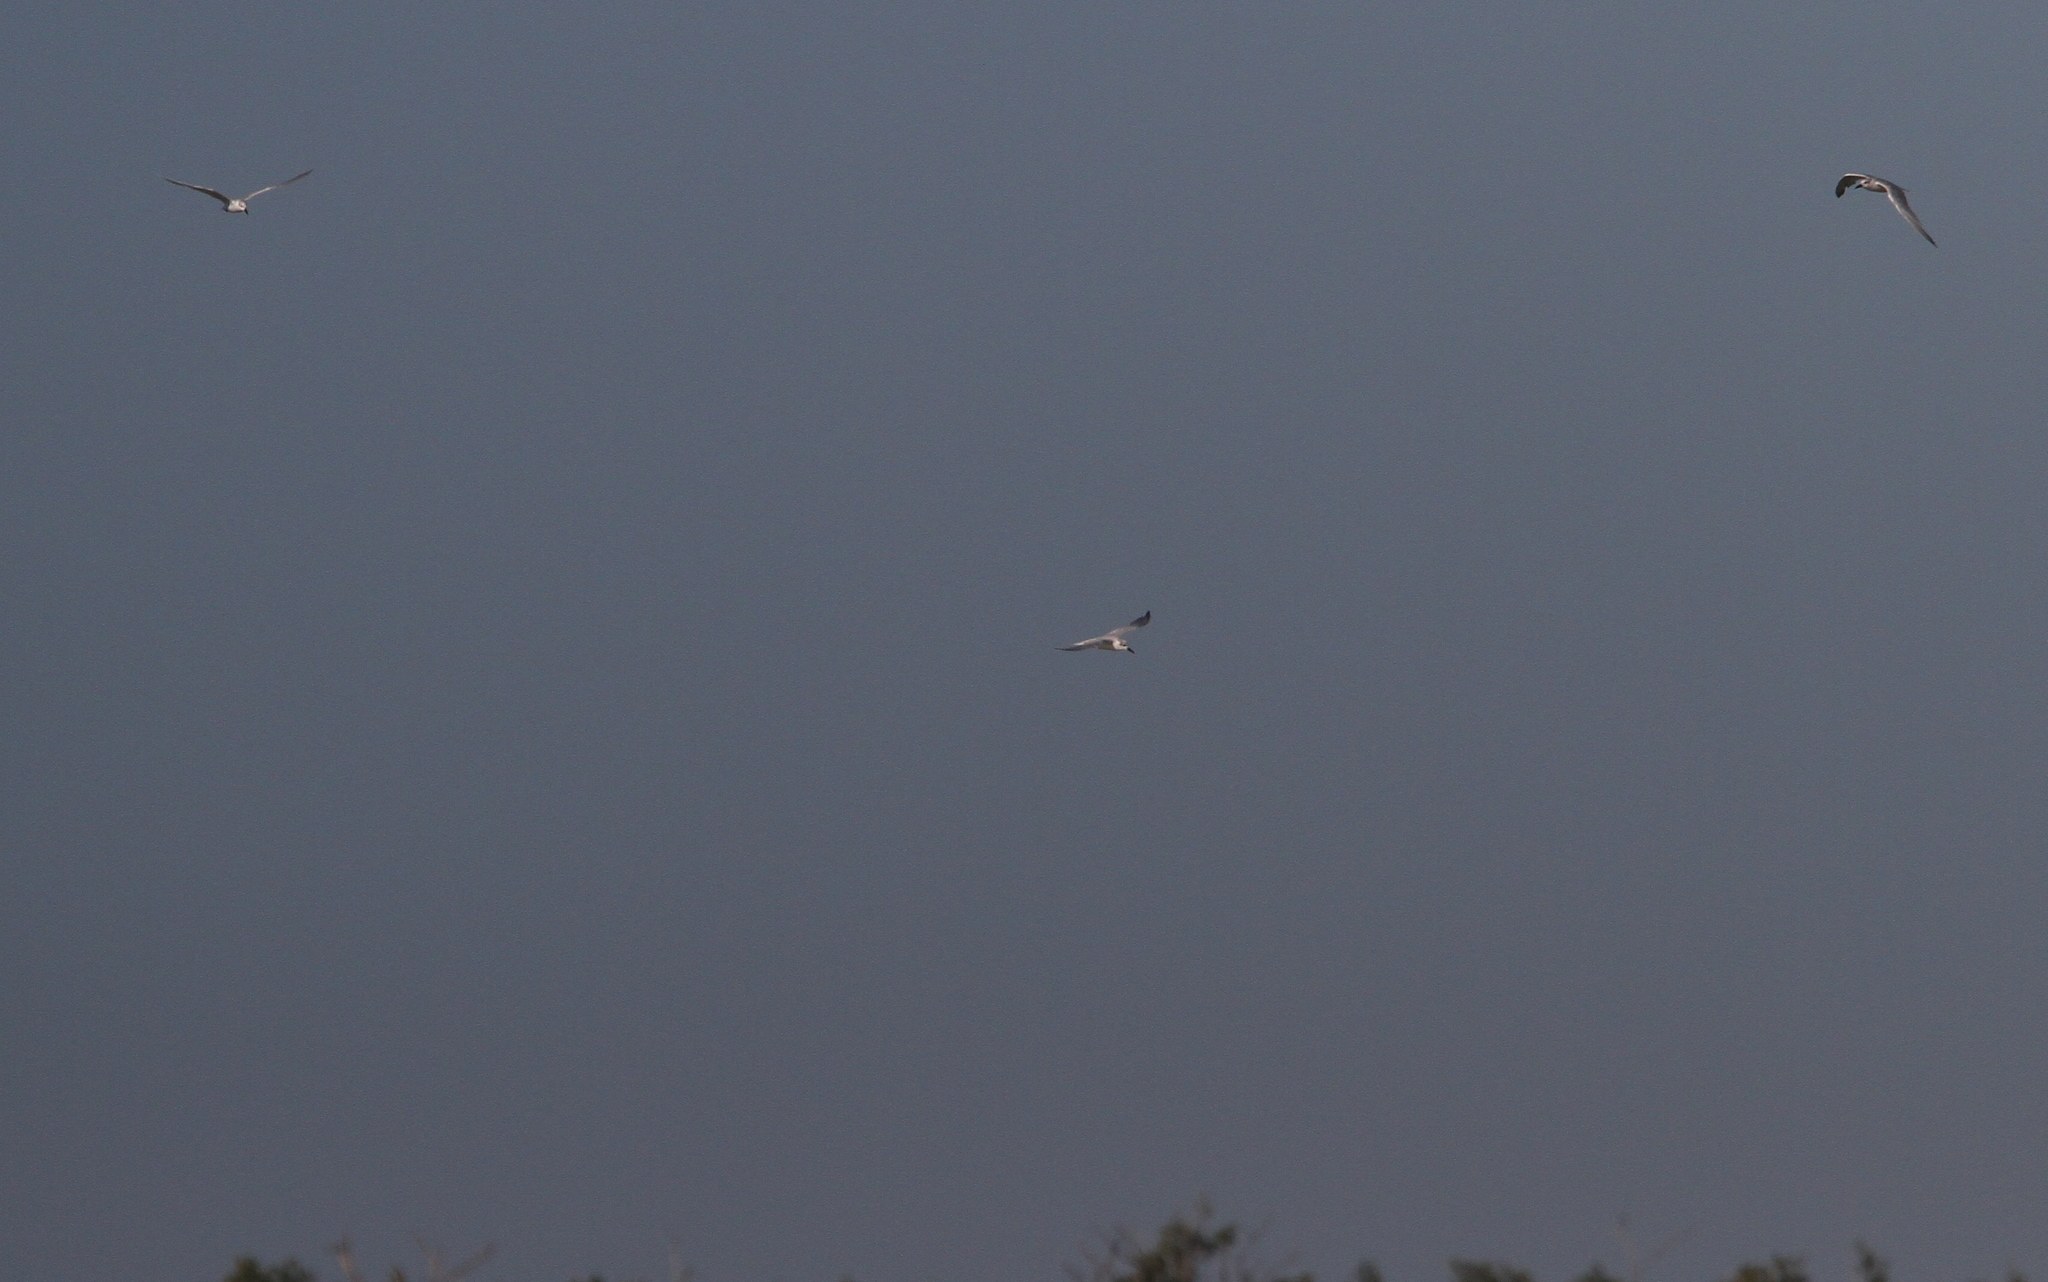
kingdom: Animalia
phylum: Chordata
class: Aves
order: Charadriiformes
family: Laridae
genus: Gelochelidon
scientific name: Gelochelidon nilotica
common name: Gull-billed tern
